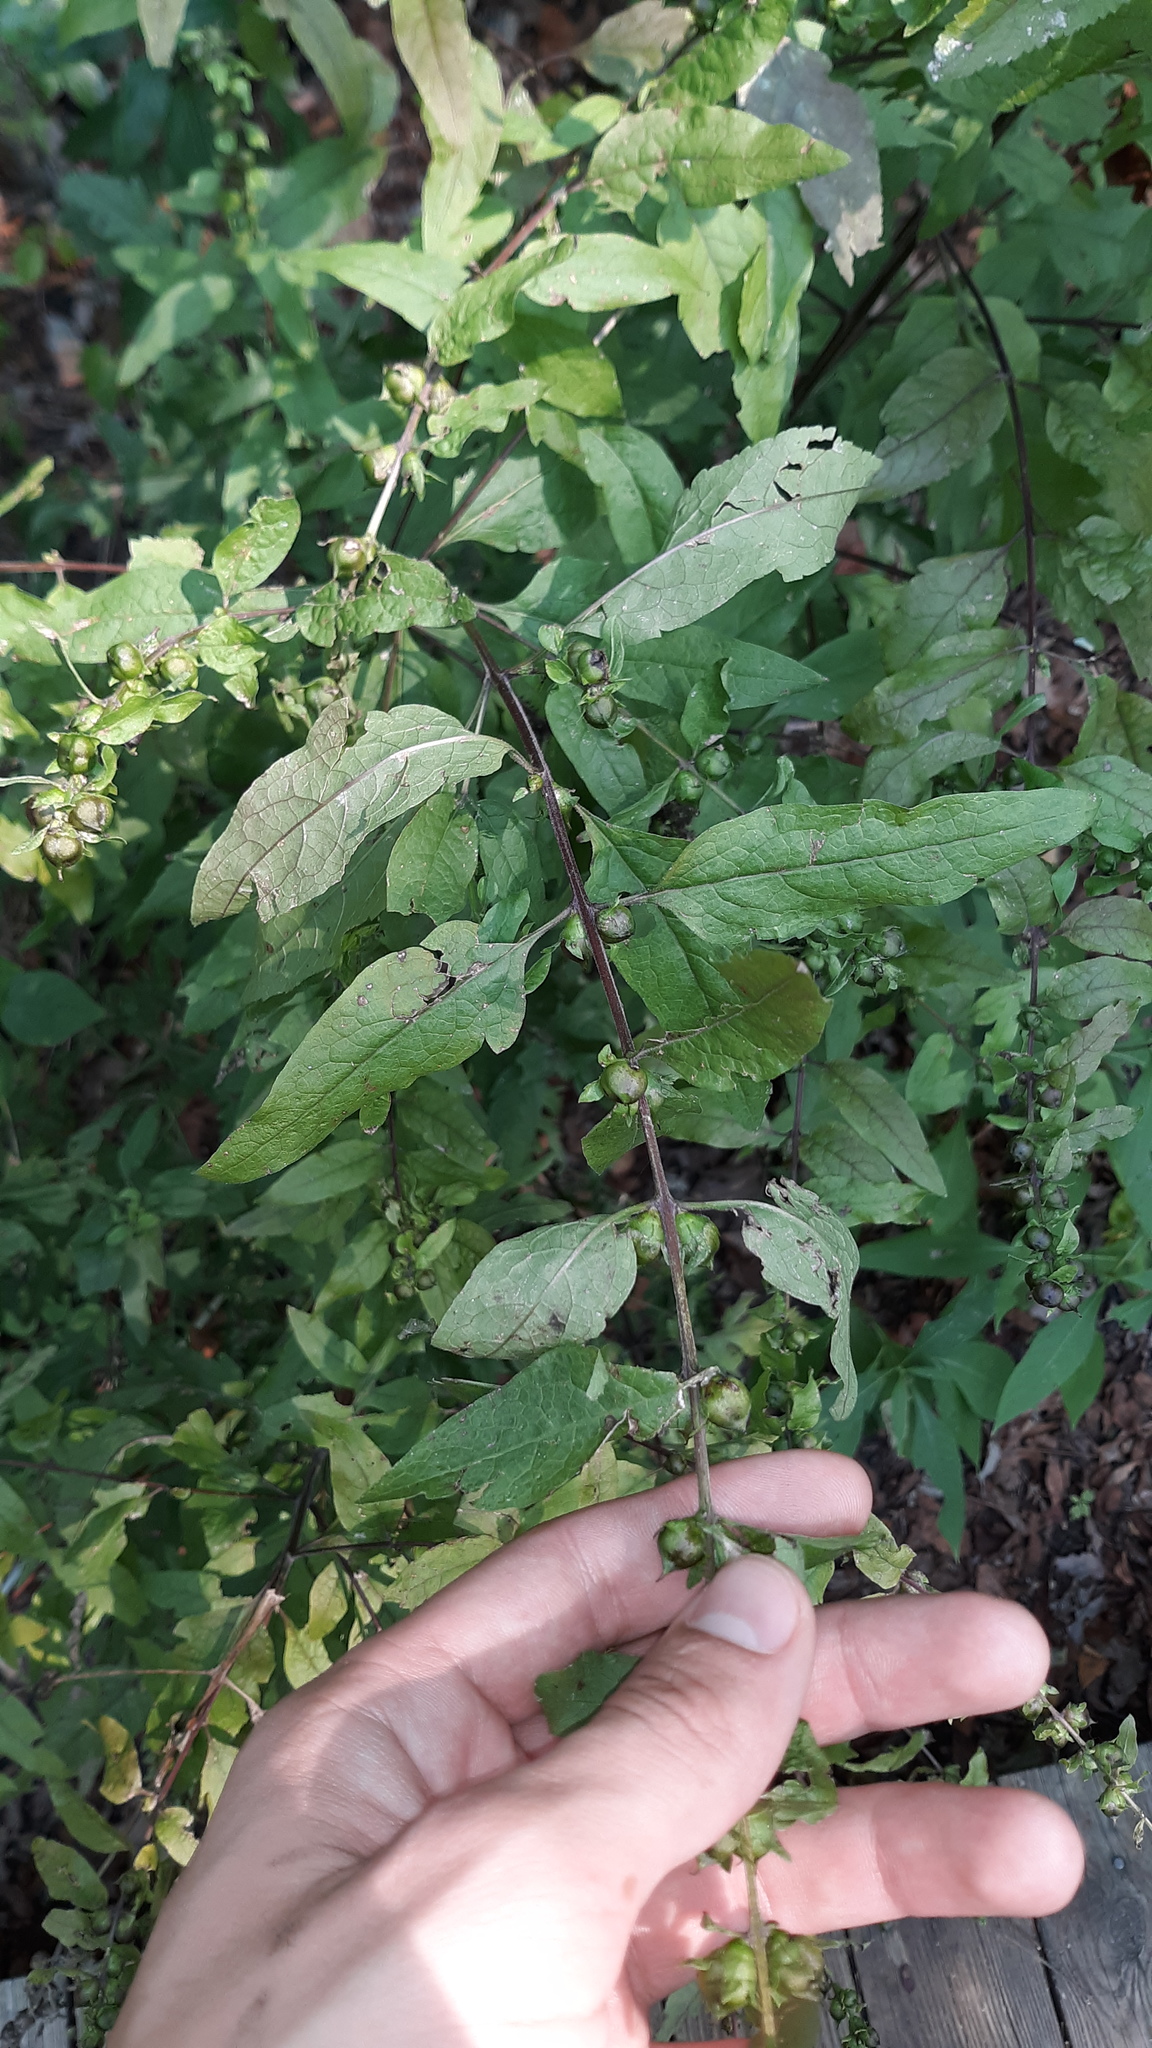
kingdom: Plantae
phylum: Tracheophyta
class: Magnoliopsida
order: Lamiales
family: Orobanchaceae
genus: Dasistoma
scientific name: Dasistoma macrophyllum
